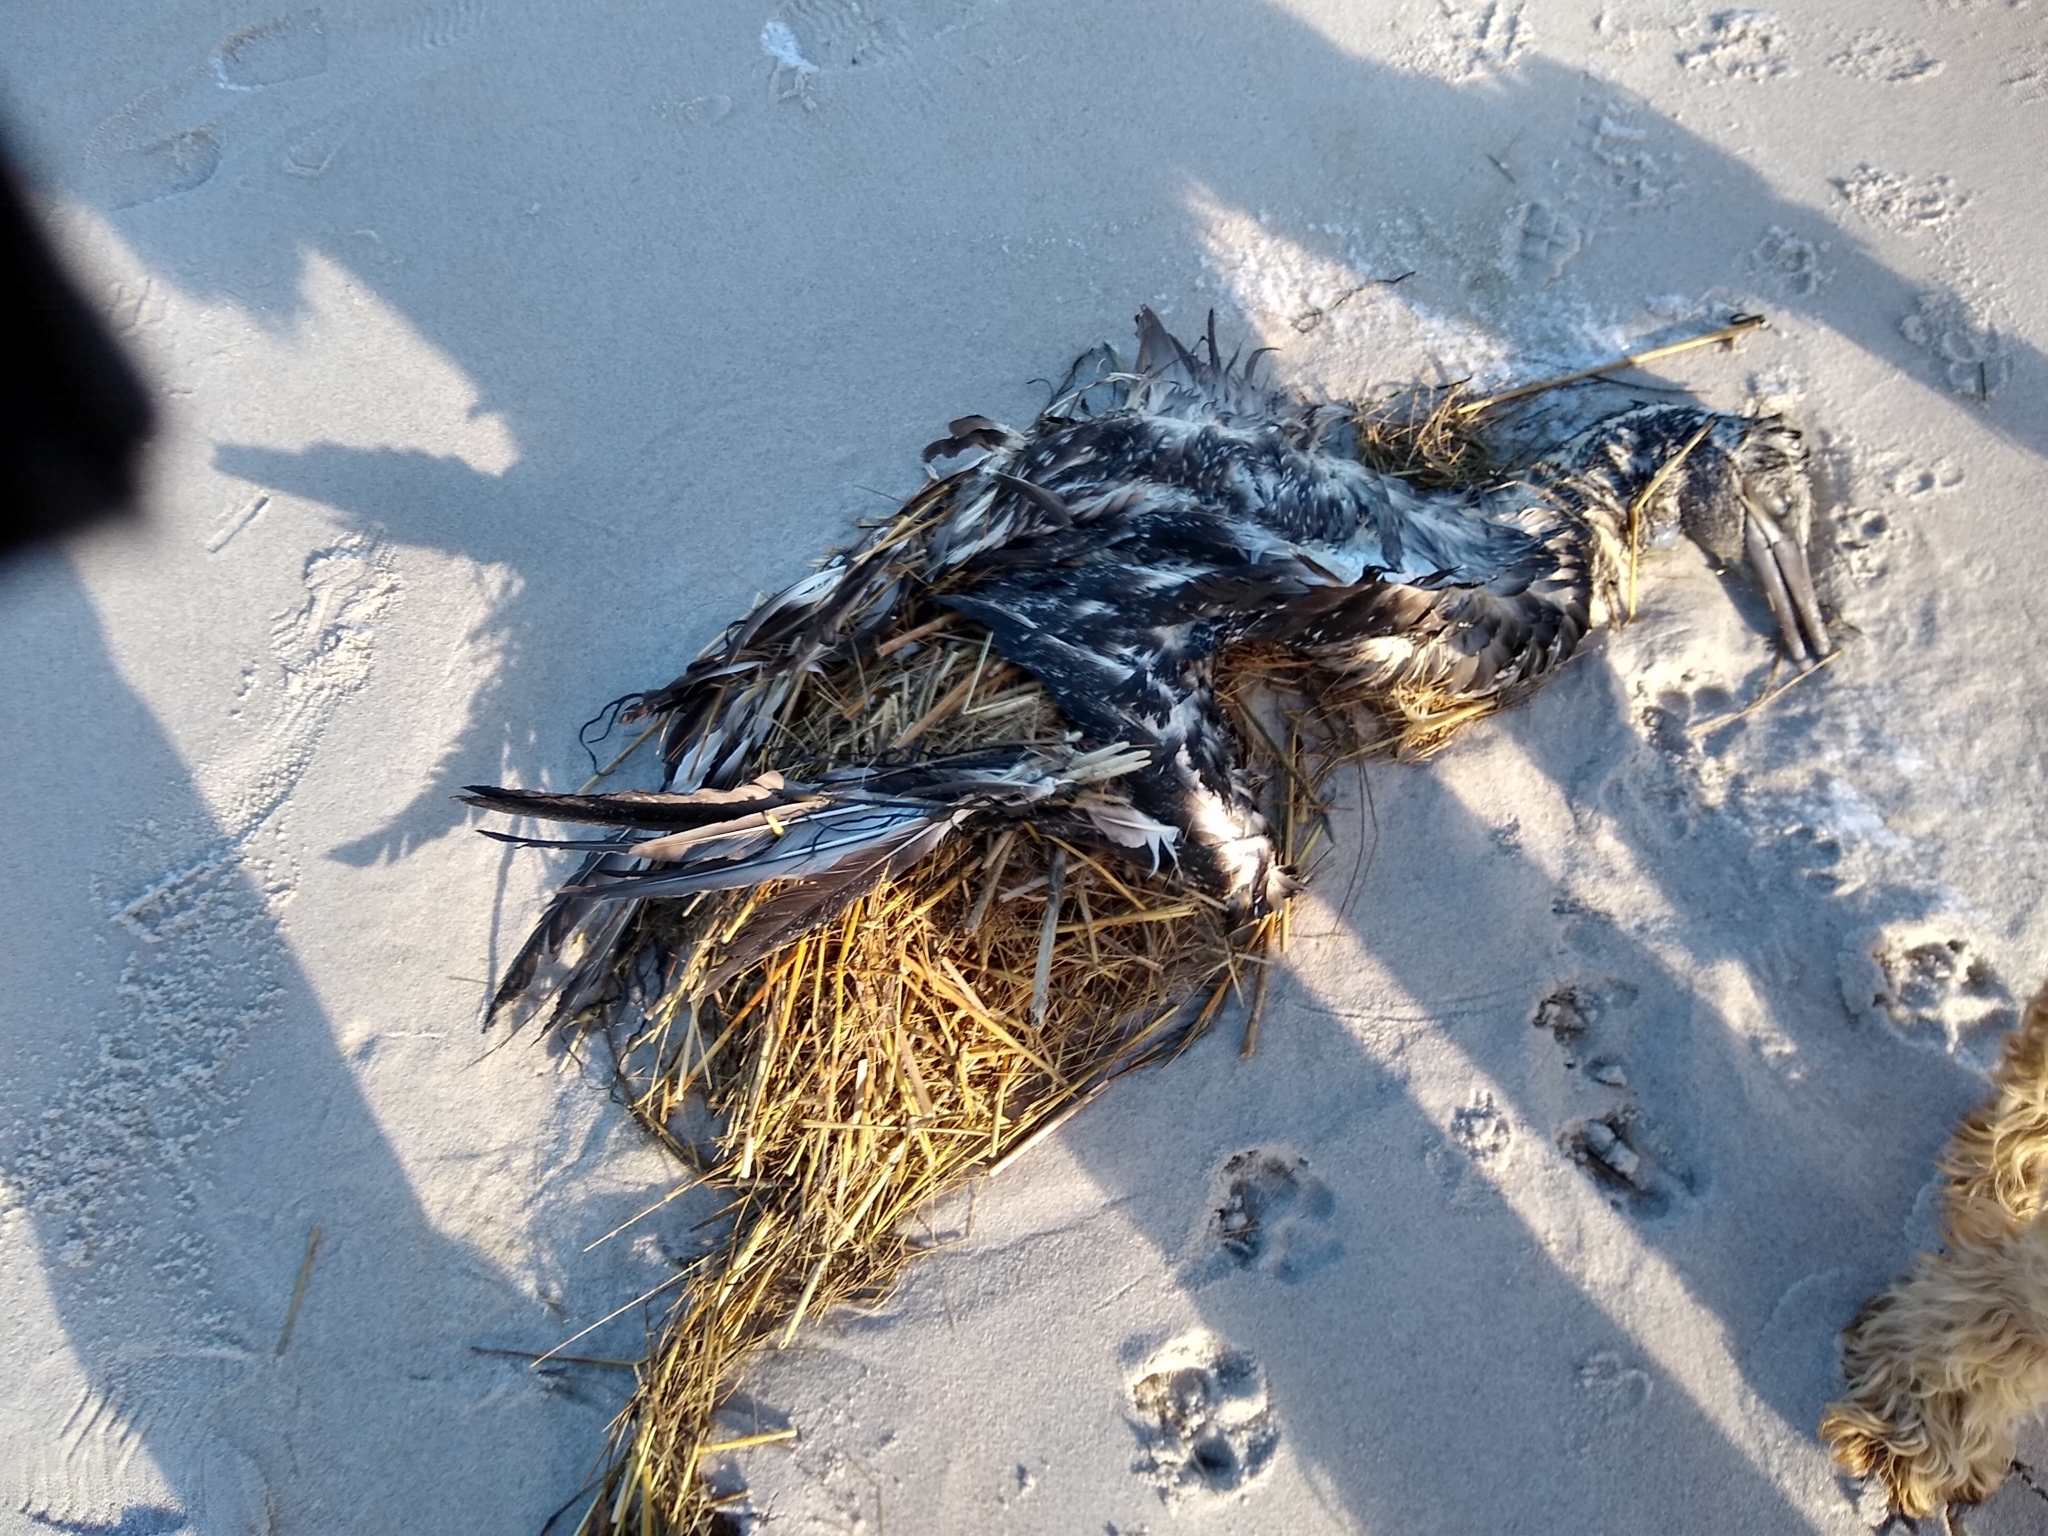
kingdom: Animalia
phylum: Chordata
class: Aves
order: Suliformes
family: Sulidae
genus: Morus
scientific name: Morus bassanus
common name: Northern gannet
